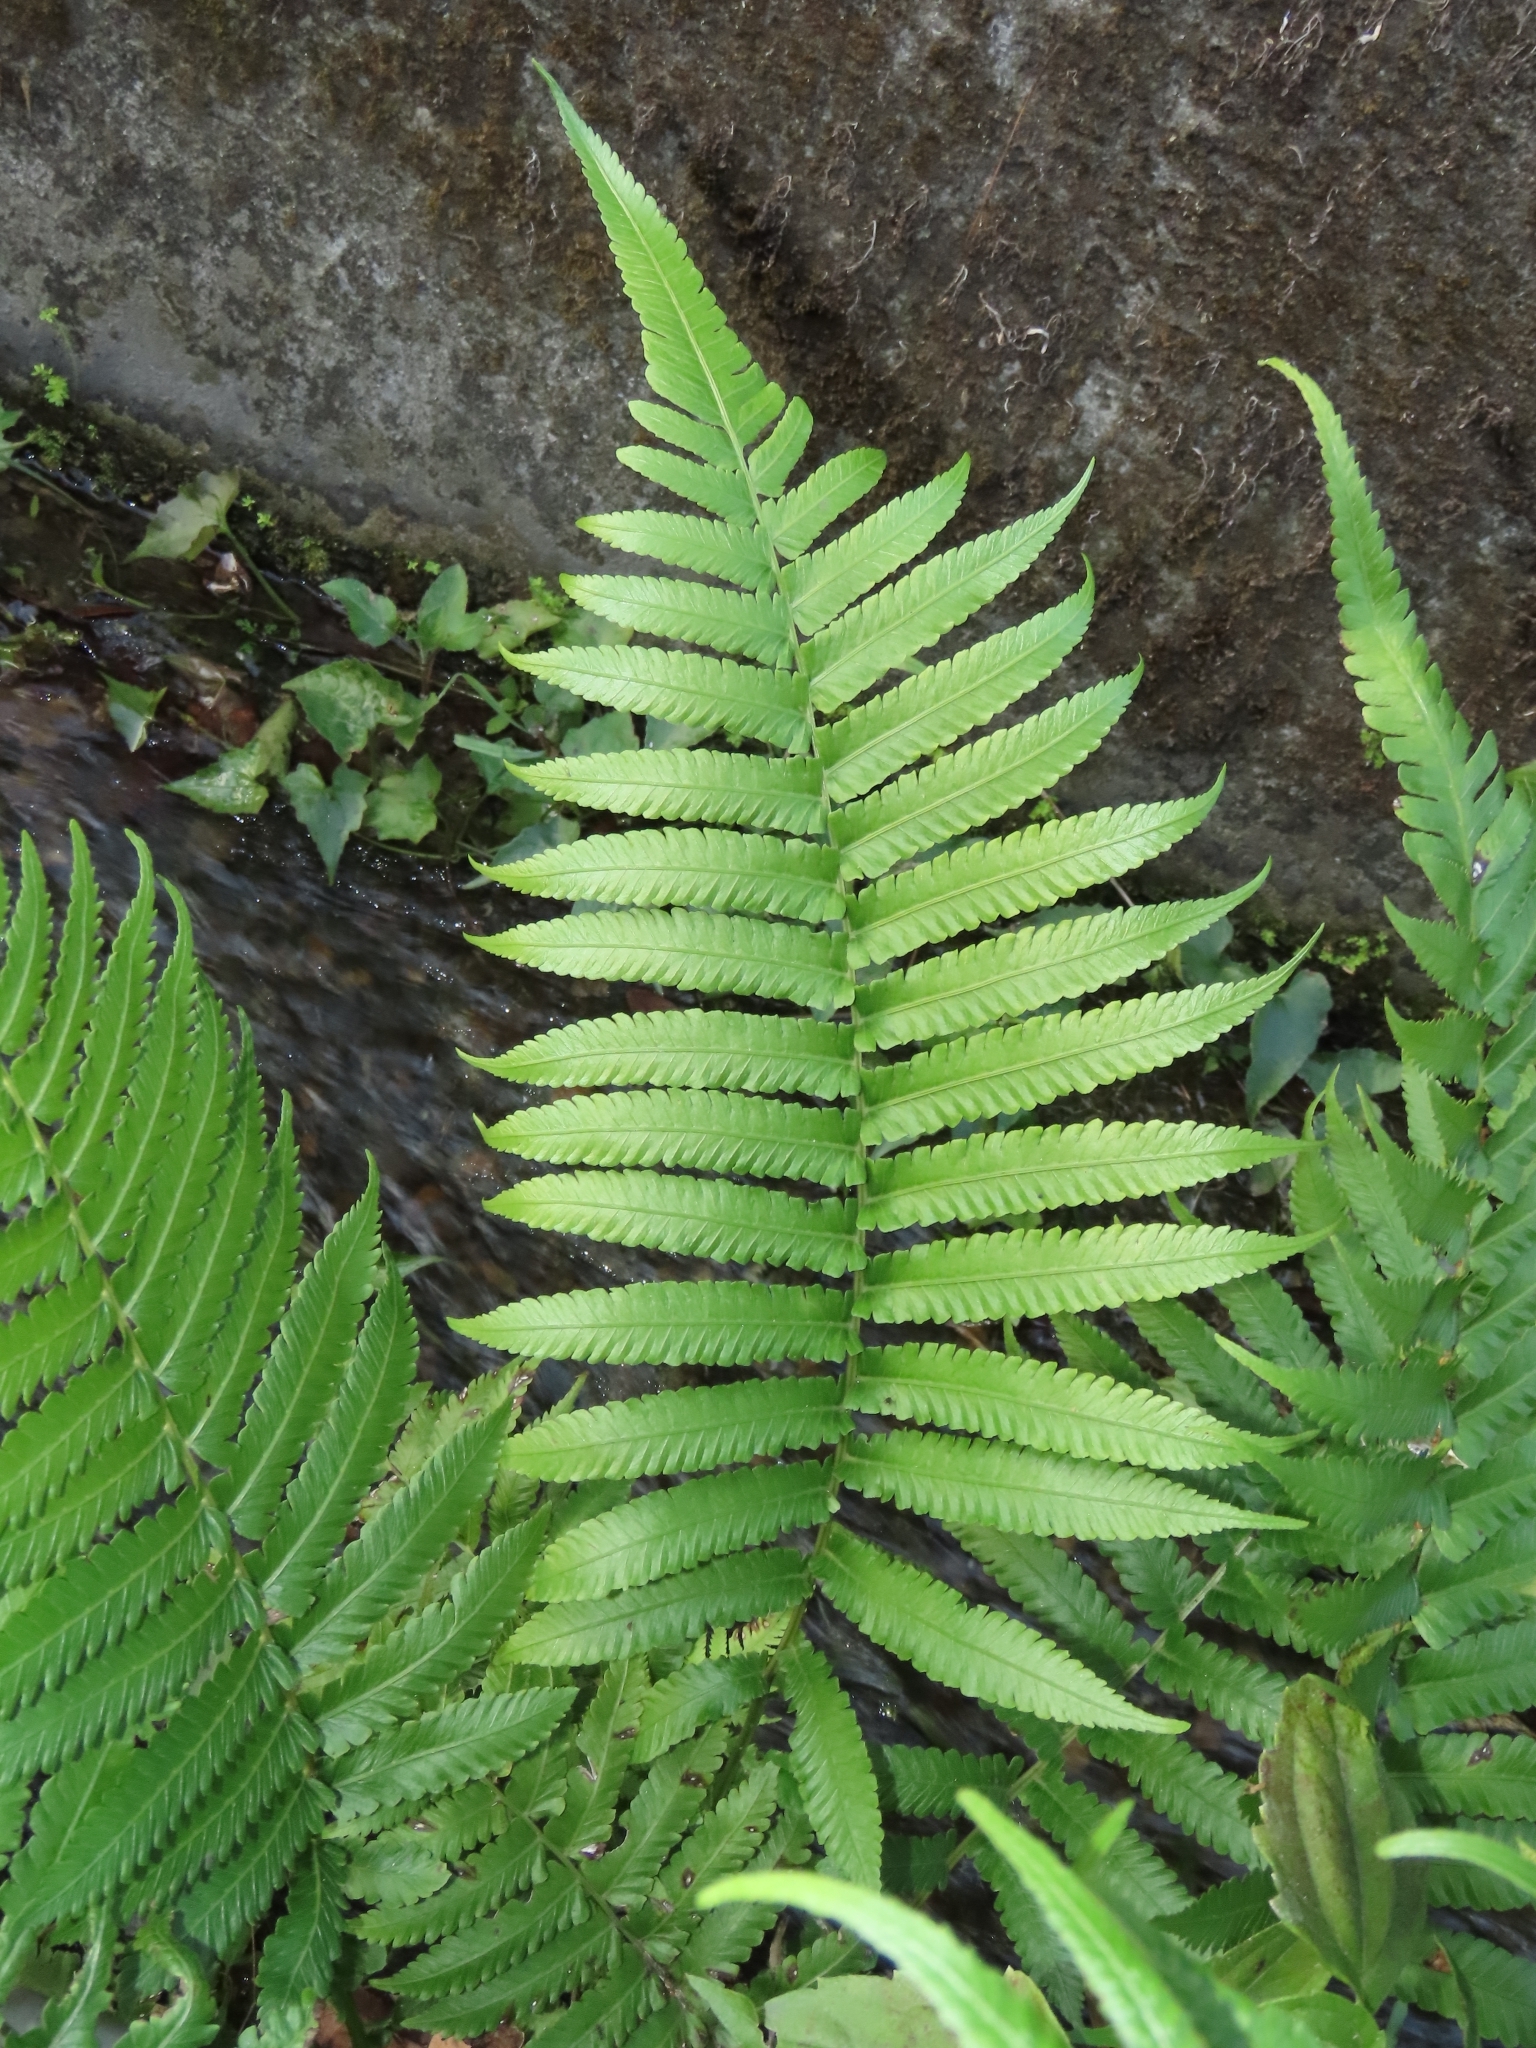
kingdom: Plantae
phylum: Tracheophyta
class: Polypodiopsida
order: Polypodiales
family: Thelypteridaceae
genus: Reholttumia
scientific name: Reholttumia truncata
